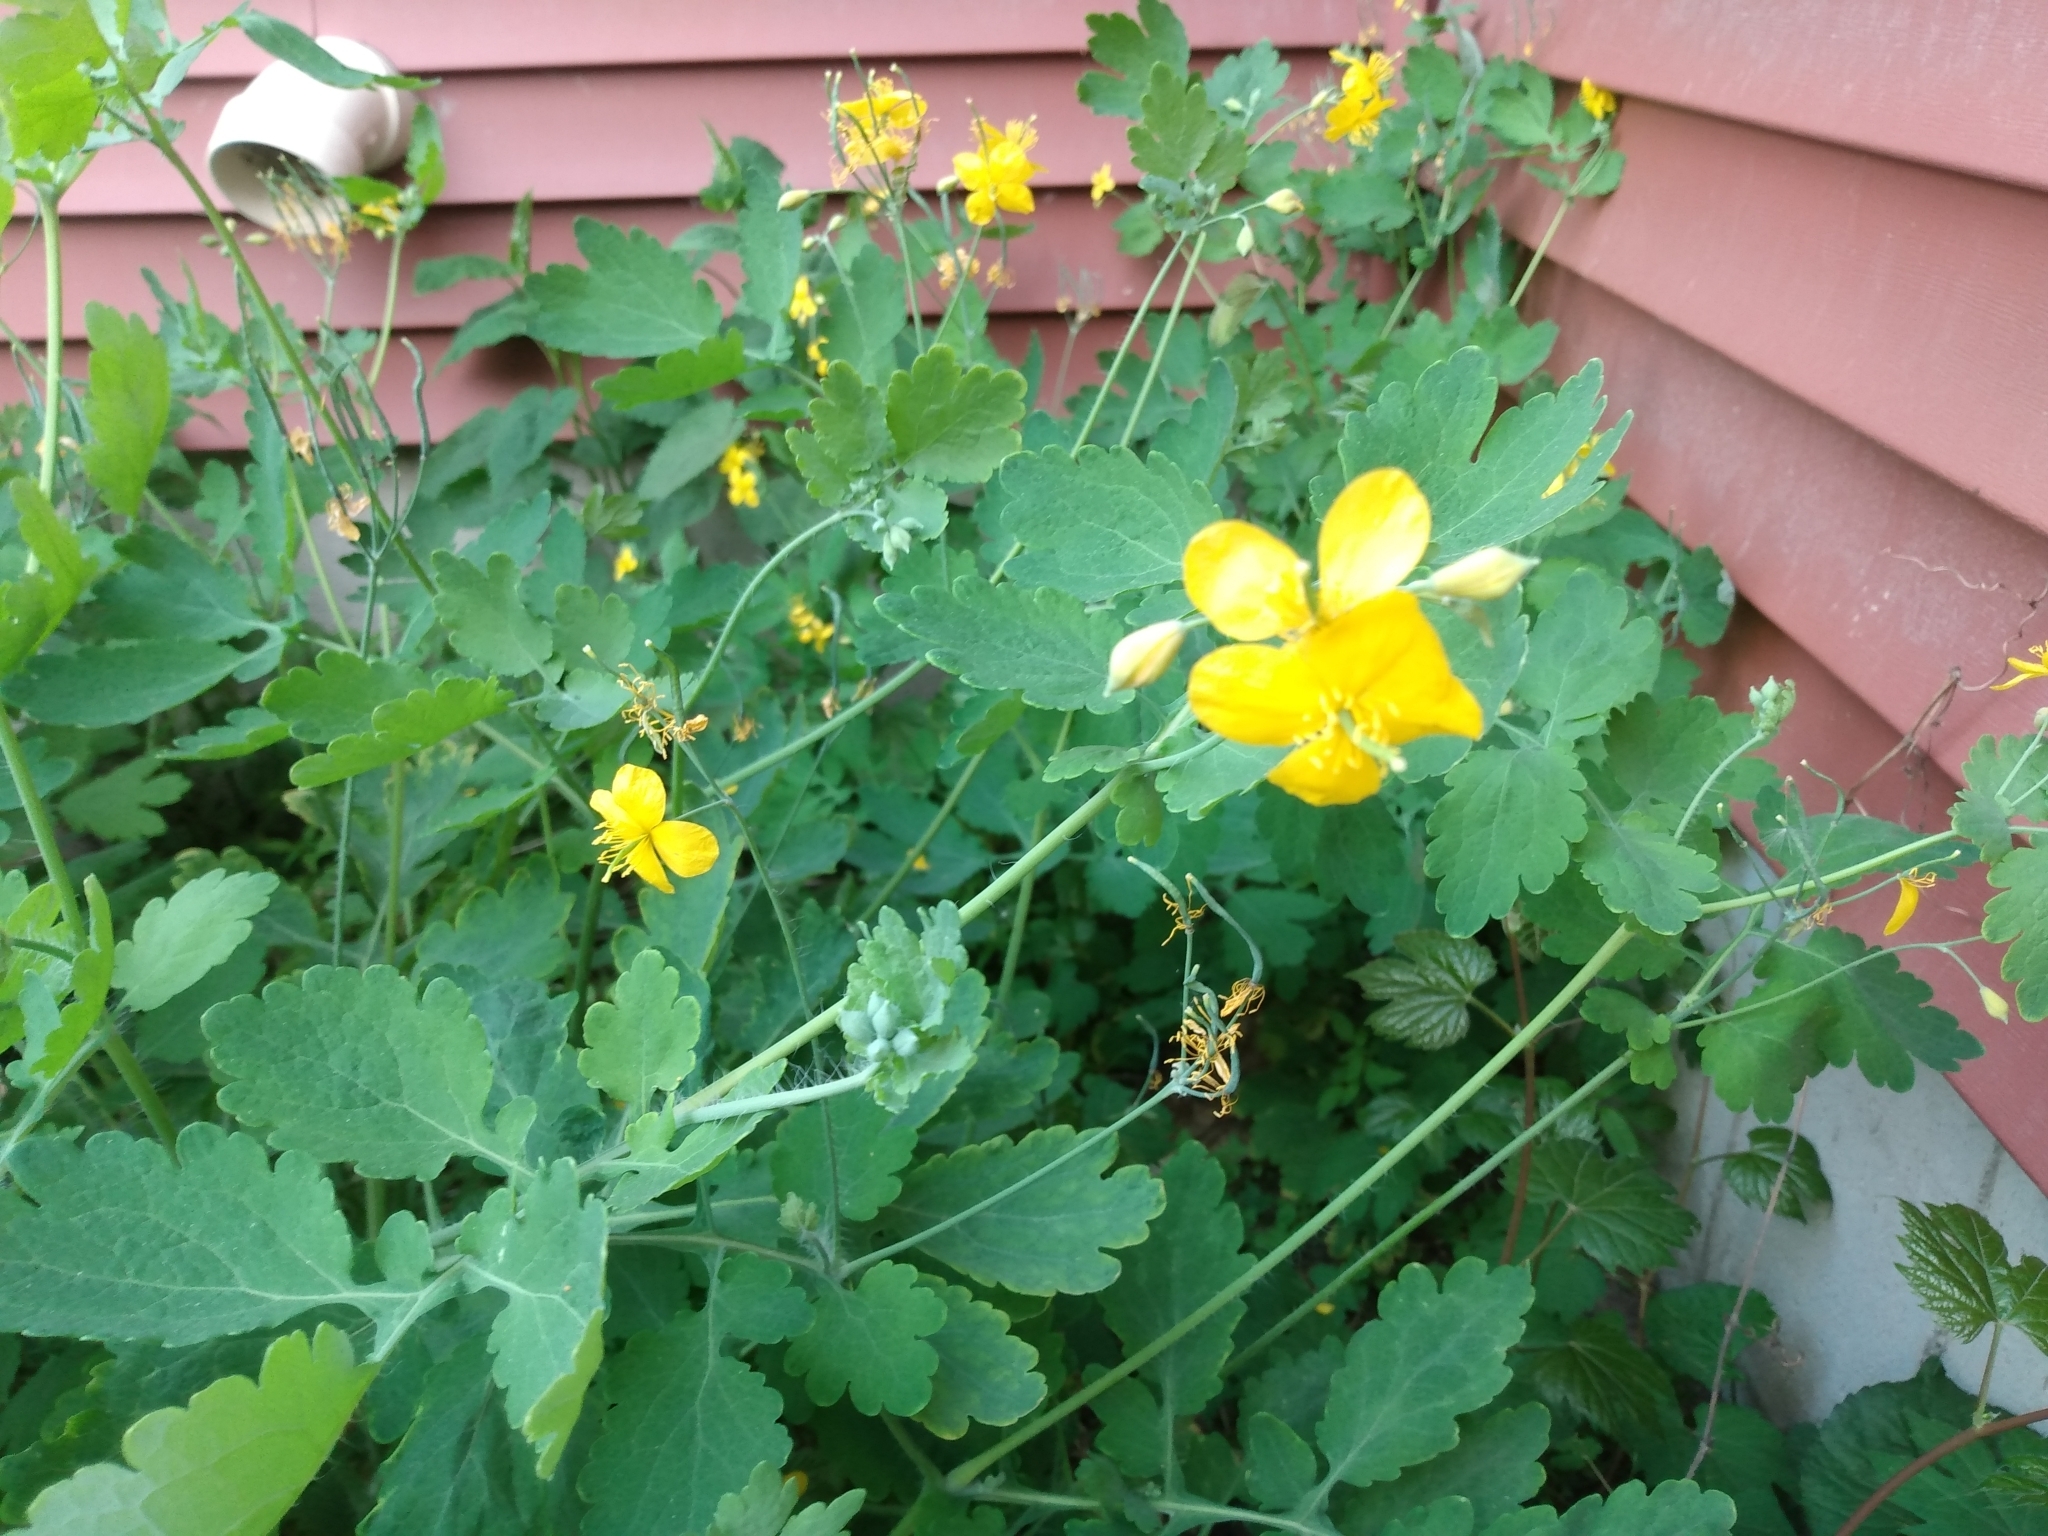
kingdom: Plantae
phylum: Tracheophyta
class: Magnoliopsida
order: Ranunculales
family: Papaveraceae
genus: Chelidonium
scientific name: Chelidonium majus
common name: Greater celandine
